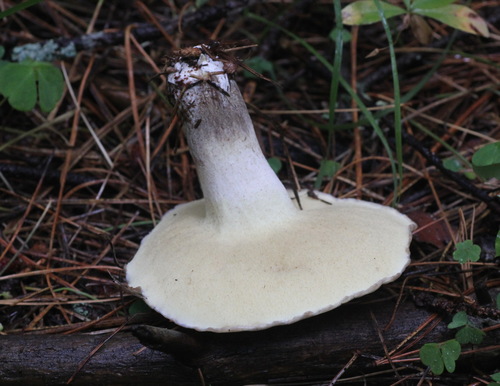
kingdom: Fungi
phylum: Basidiomycota
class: Agaricomycetes
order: Boletales
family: Suillaceae
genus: Suillus
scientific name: Suillus placidus
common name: Slippery white bolete
